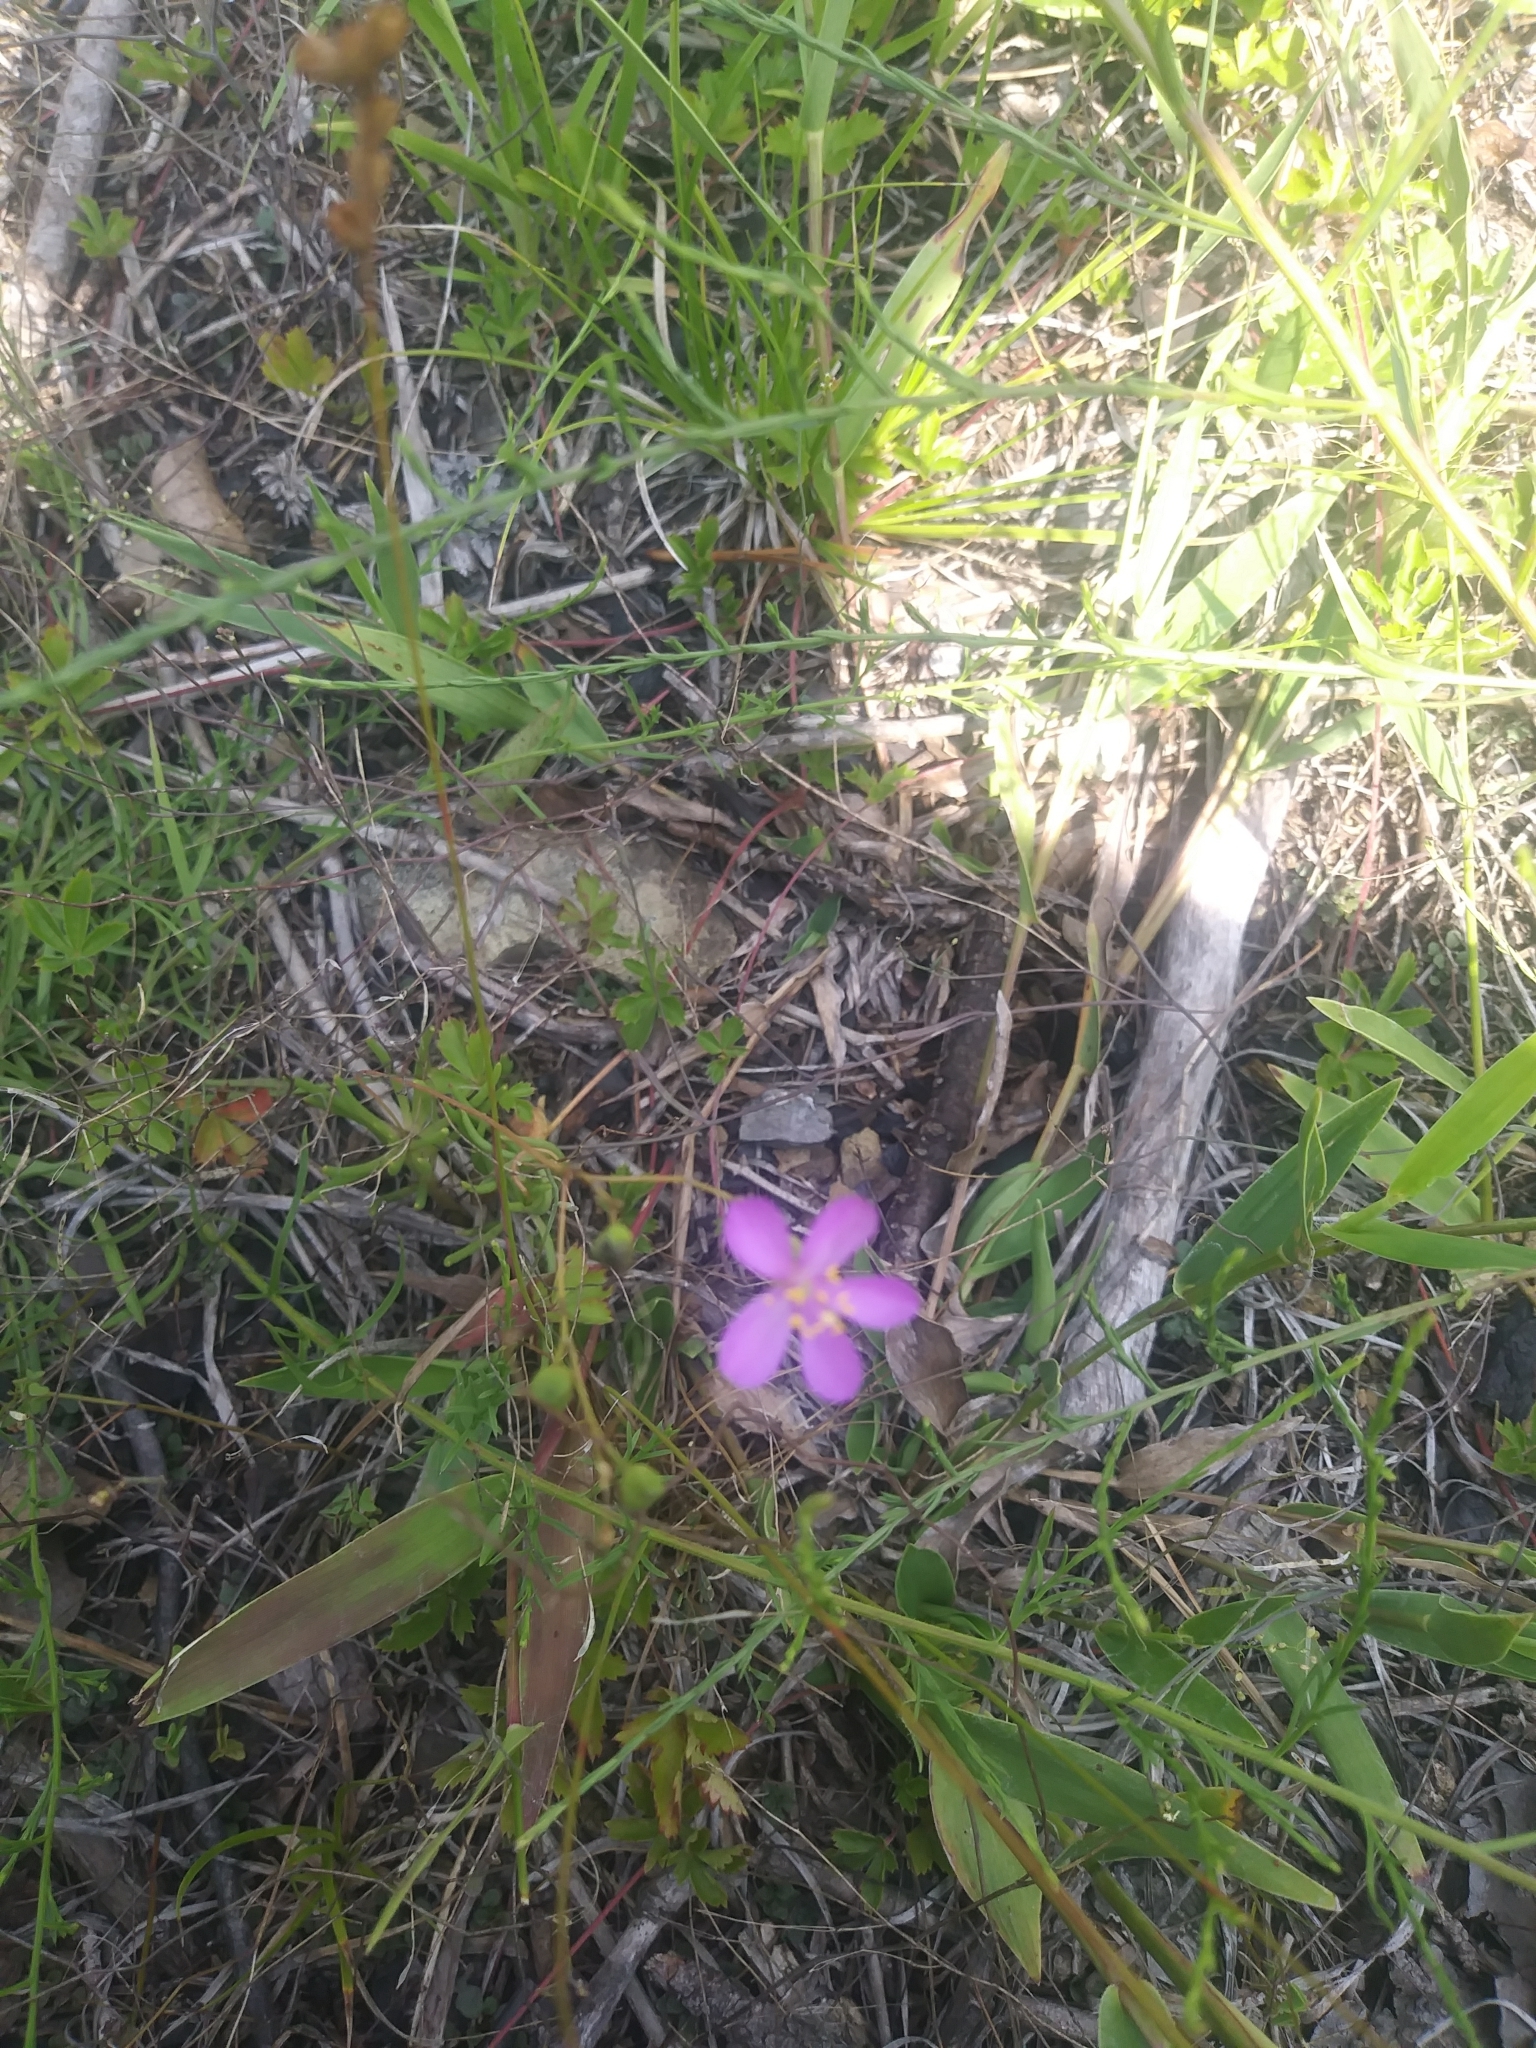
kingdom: Plantae
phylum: Tracheophyta
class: Magnoliopsida
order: Caryophyllales
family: Montiaceae
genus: Phemeranthus
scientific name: Phemeranthus teretifolius
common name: Quill fameflower
